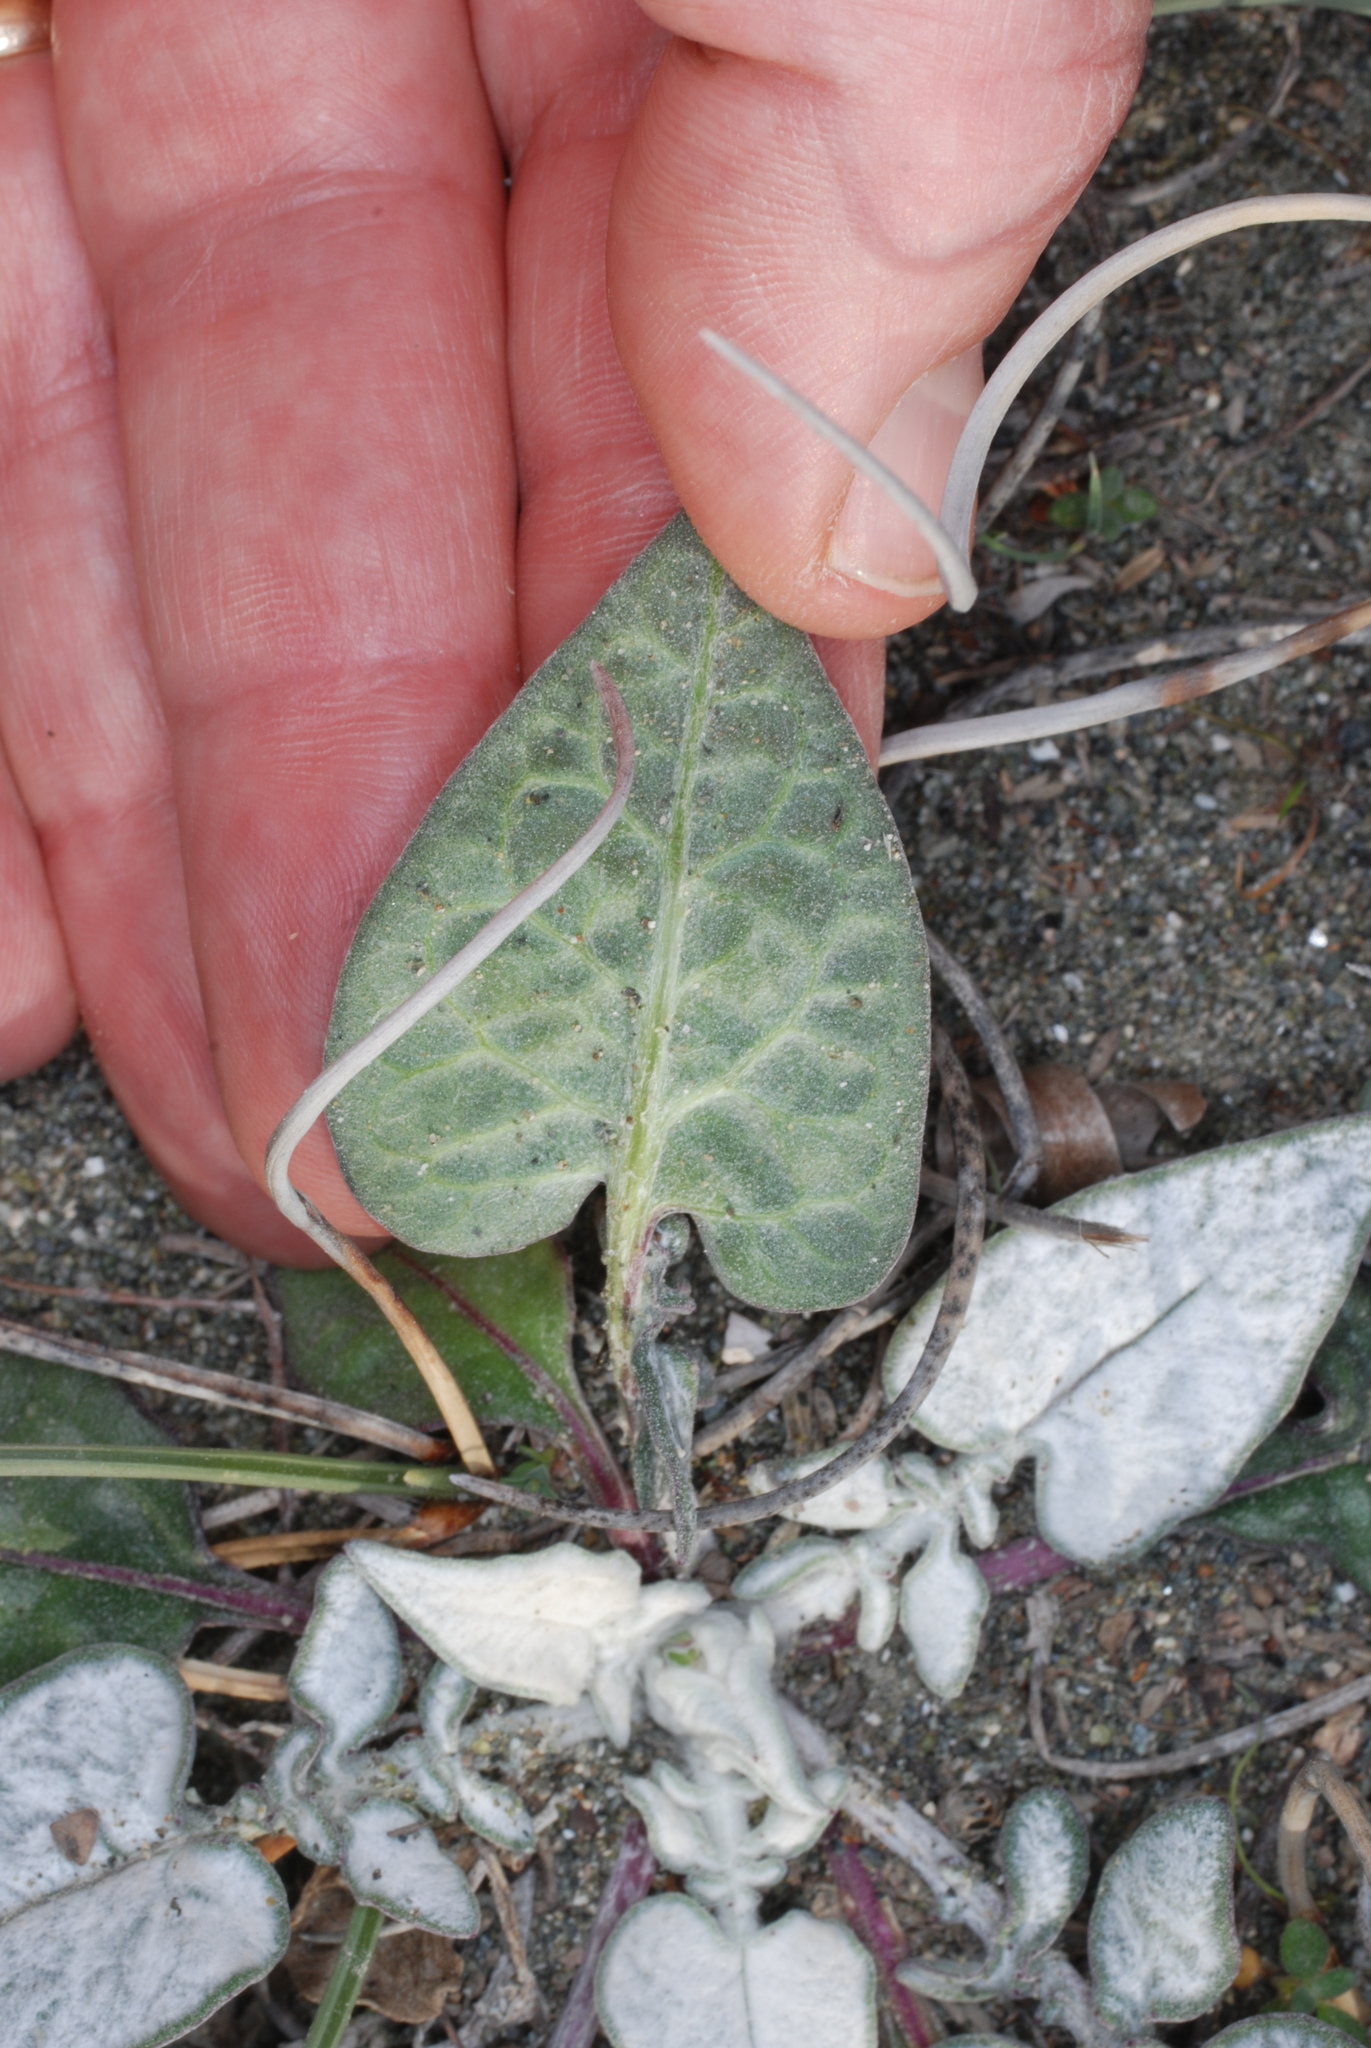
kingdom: Plantae
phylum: Tracheophyta
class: Magnoliopsida
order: Asterales
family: Asteraceae
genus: Crocodilium
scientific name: Crocodilium creticum
